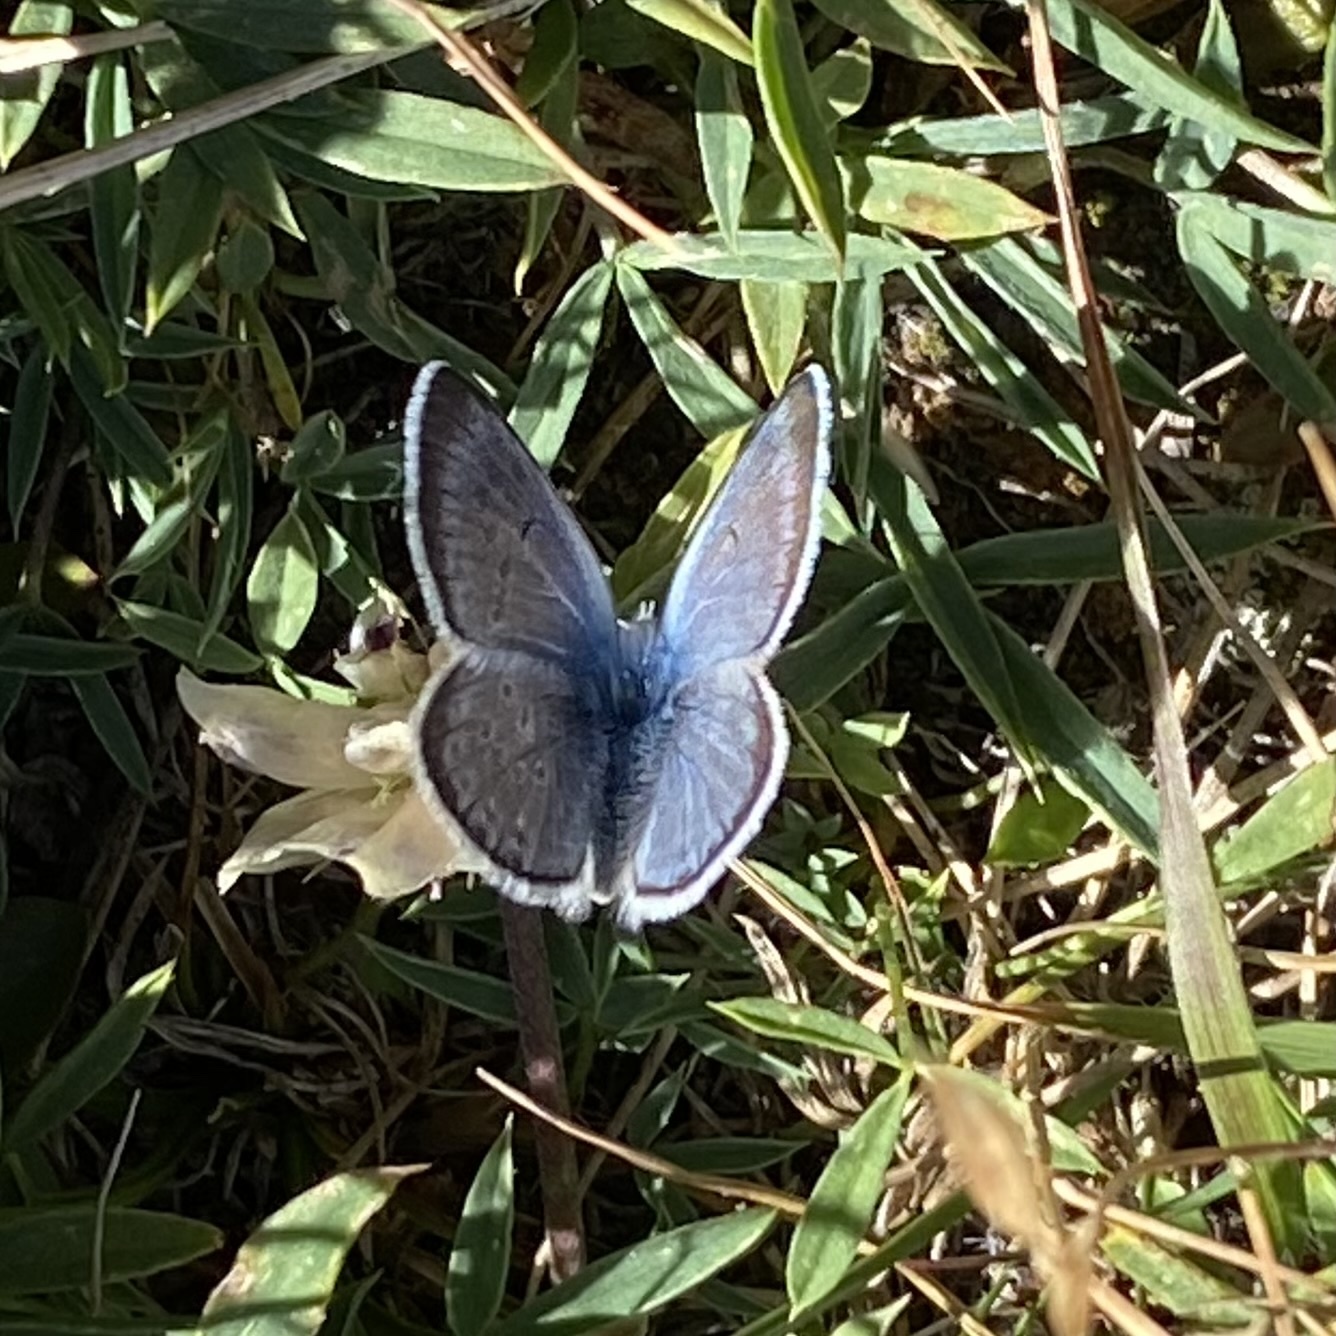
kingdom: Animalia
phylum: Arthropoda
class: Insecta
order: Lepidoptera
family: Lycaenidae
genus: Icaricia
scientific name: Icaricia saepiolus
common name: Greenish blue
